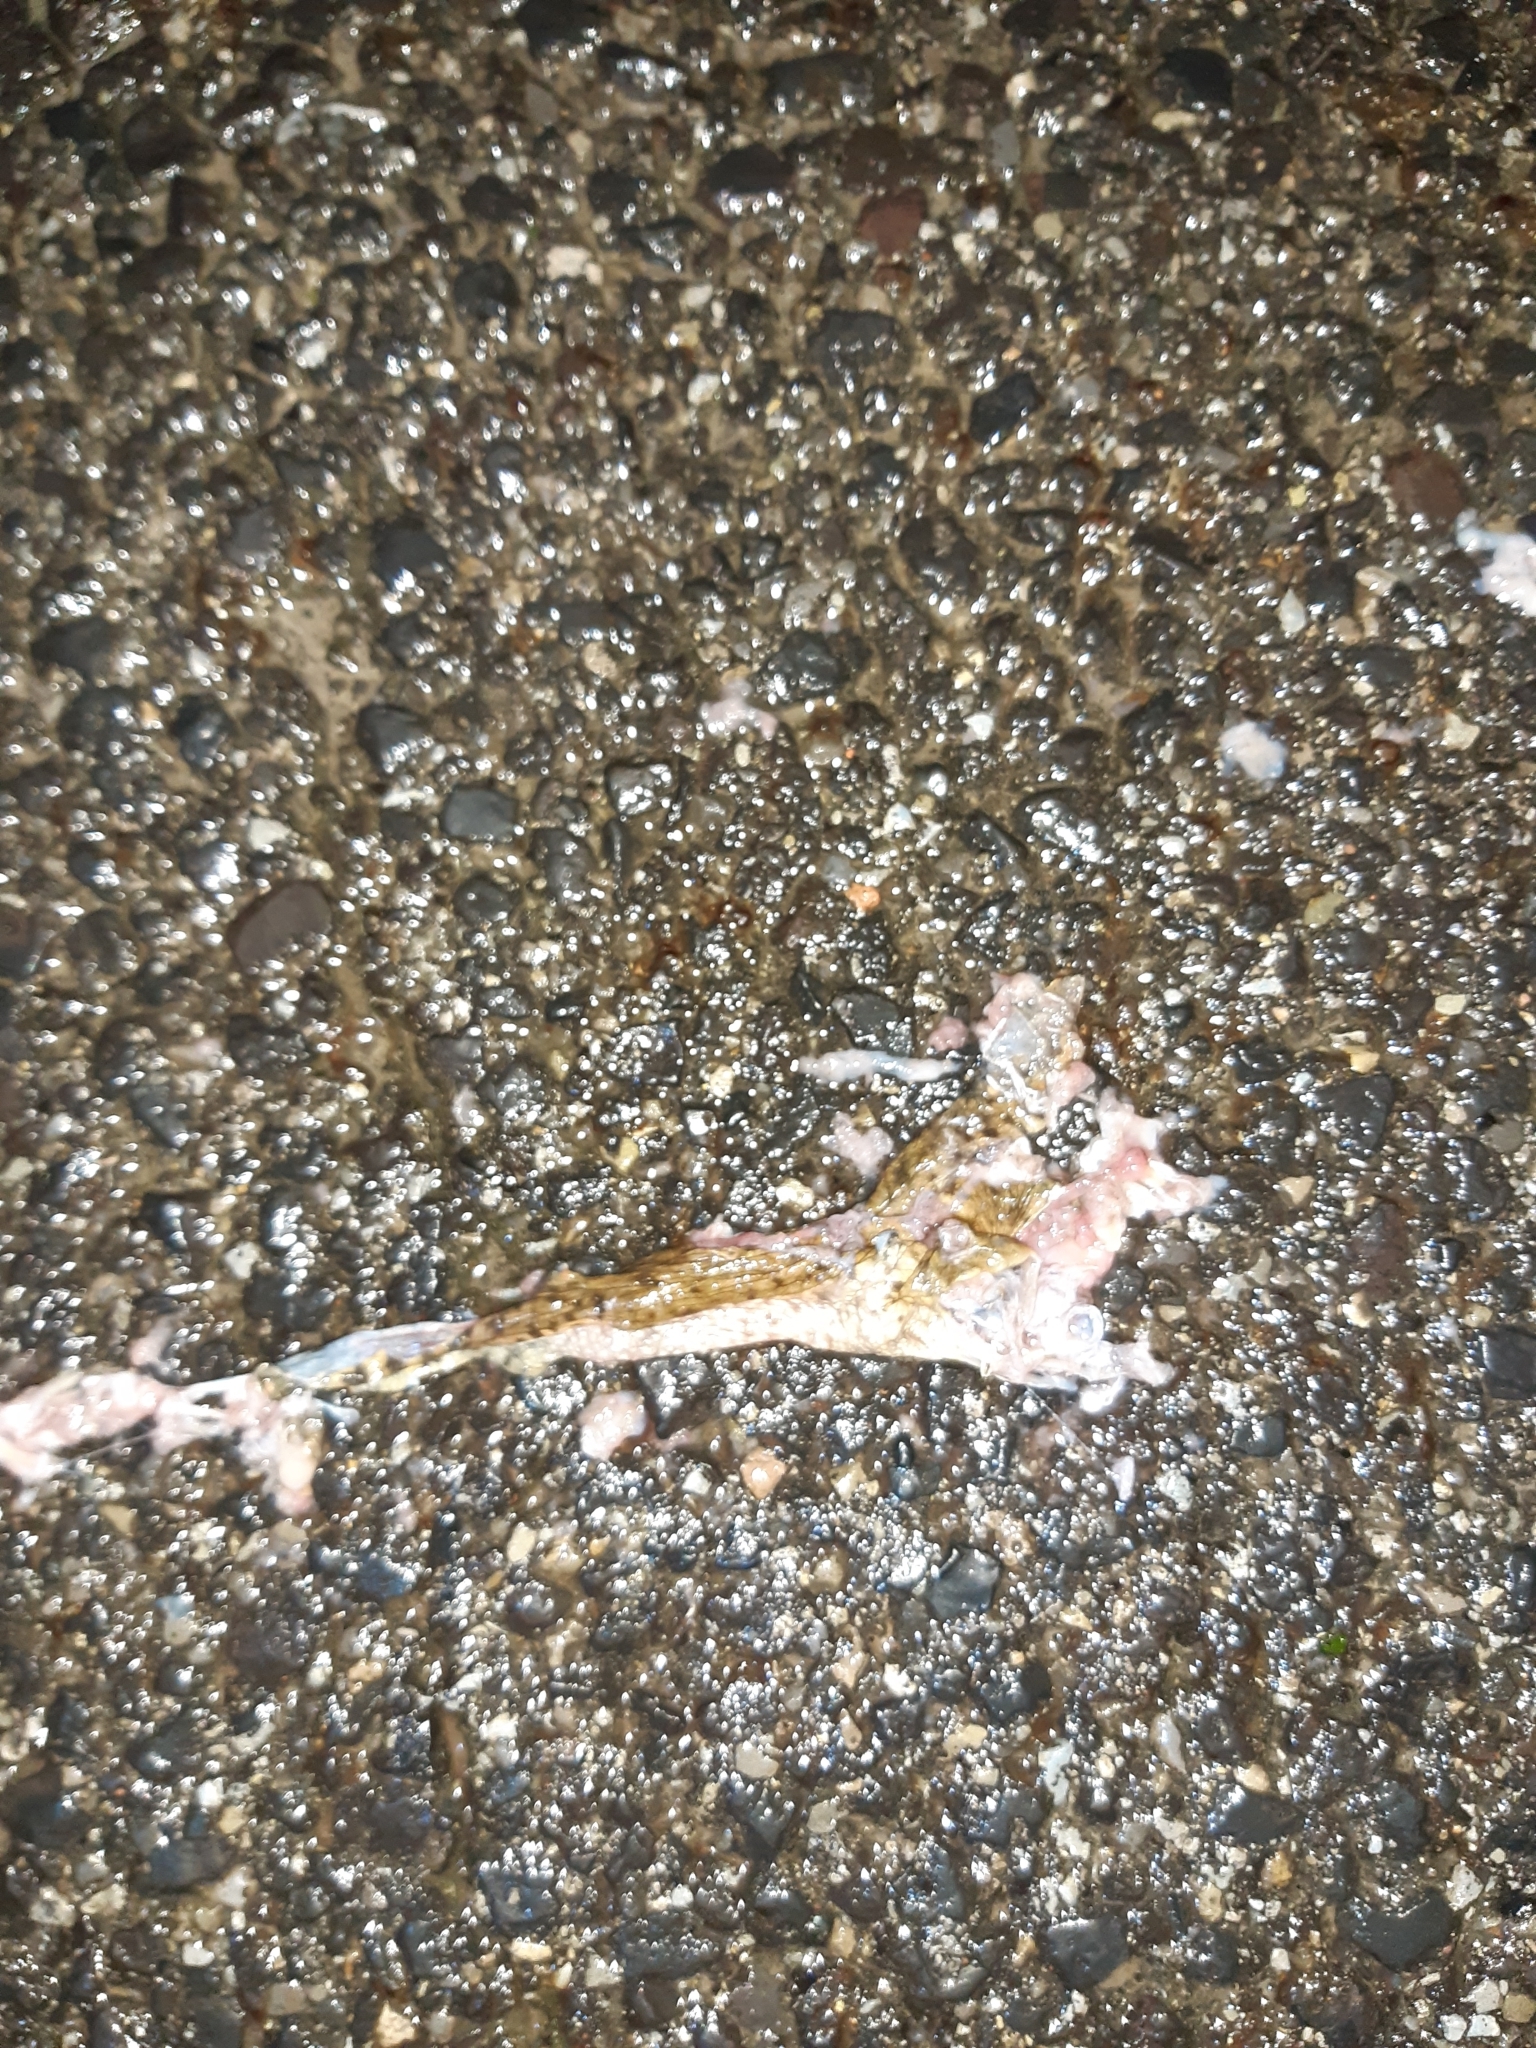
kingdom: Animalia
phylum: Chordata
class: Amphibia
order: Anura
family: Bufonidae
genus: Bufo
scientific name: Bufo bufo
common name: Common toad
